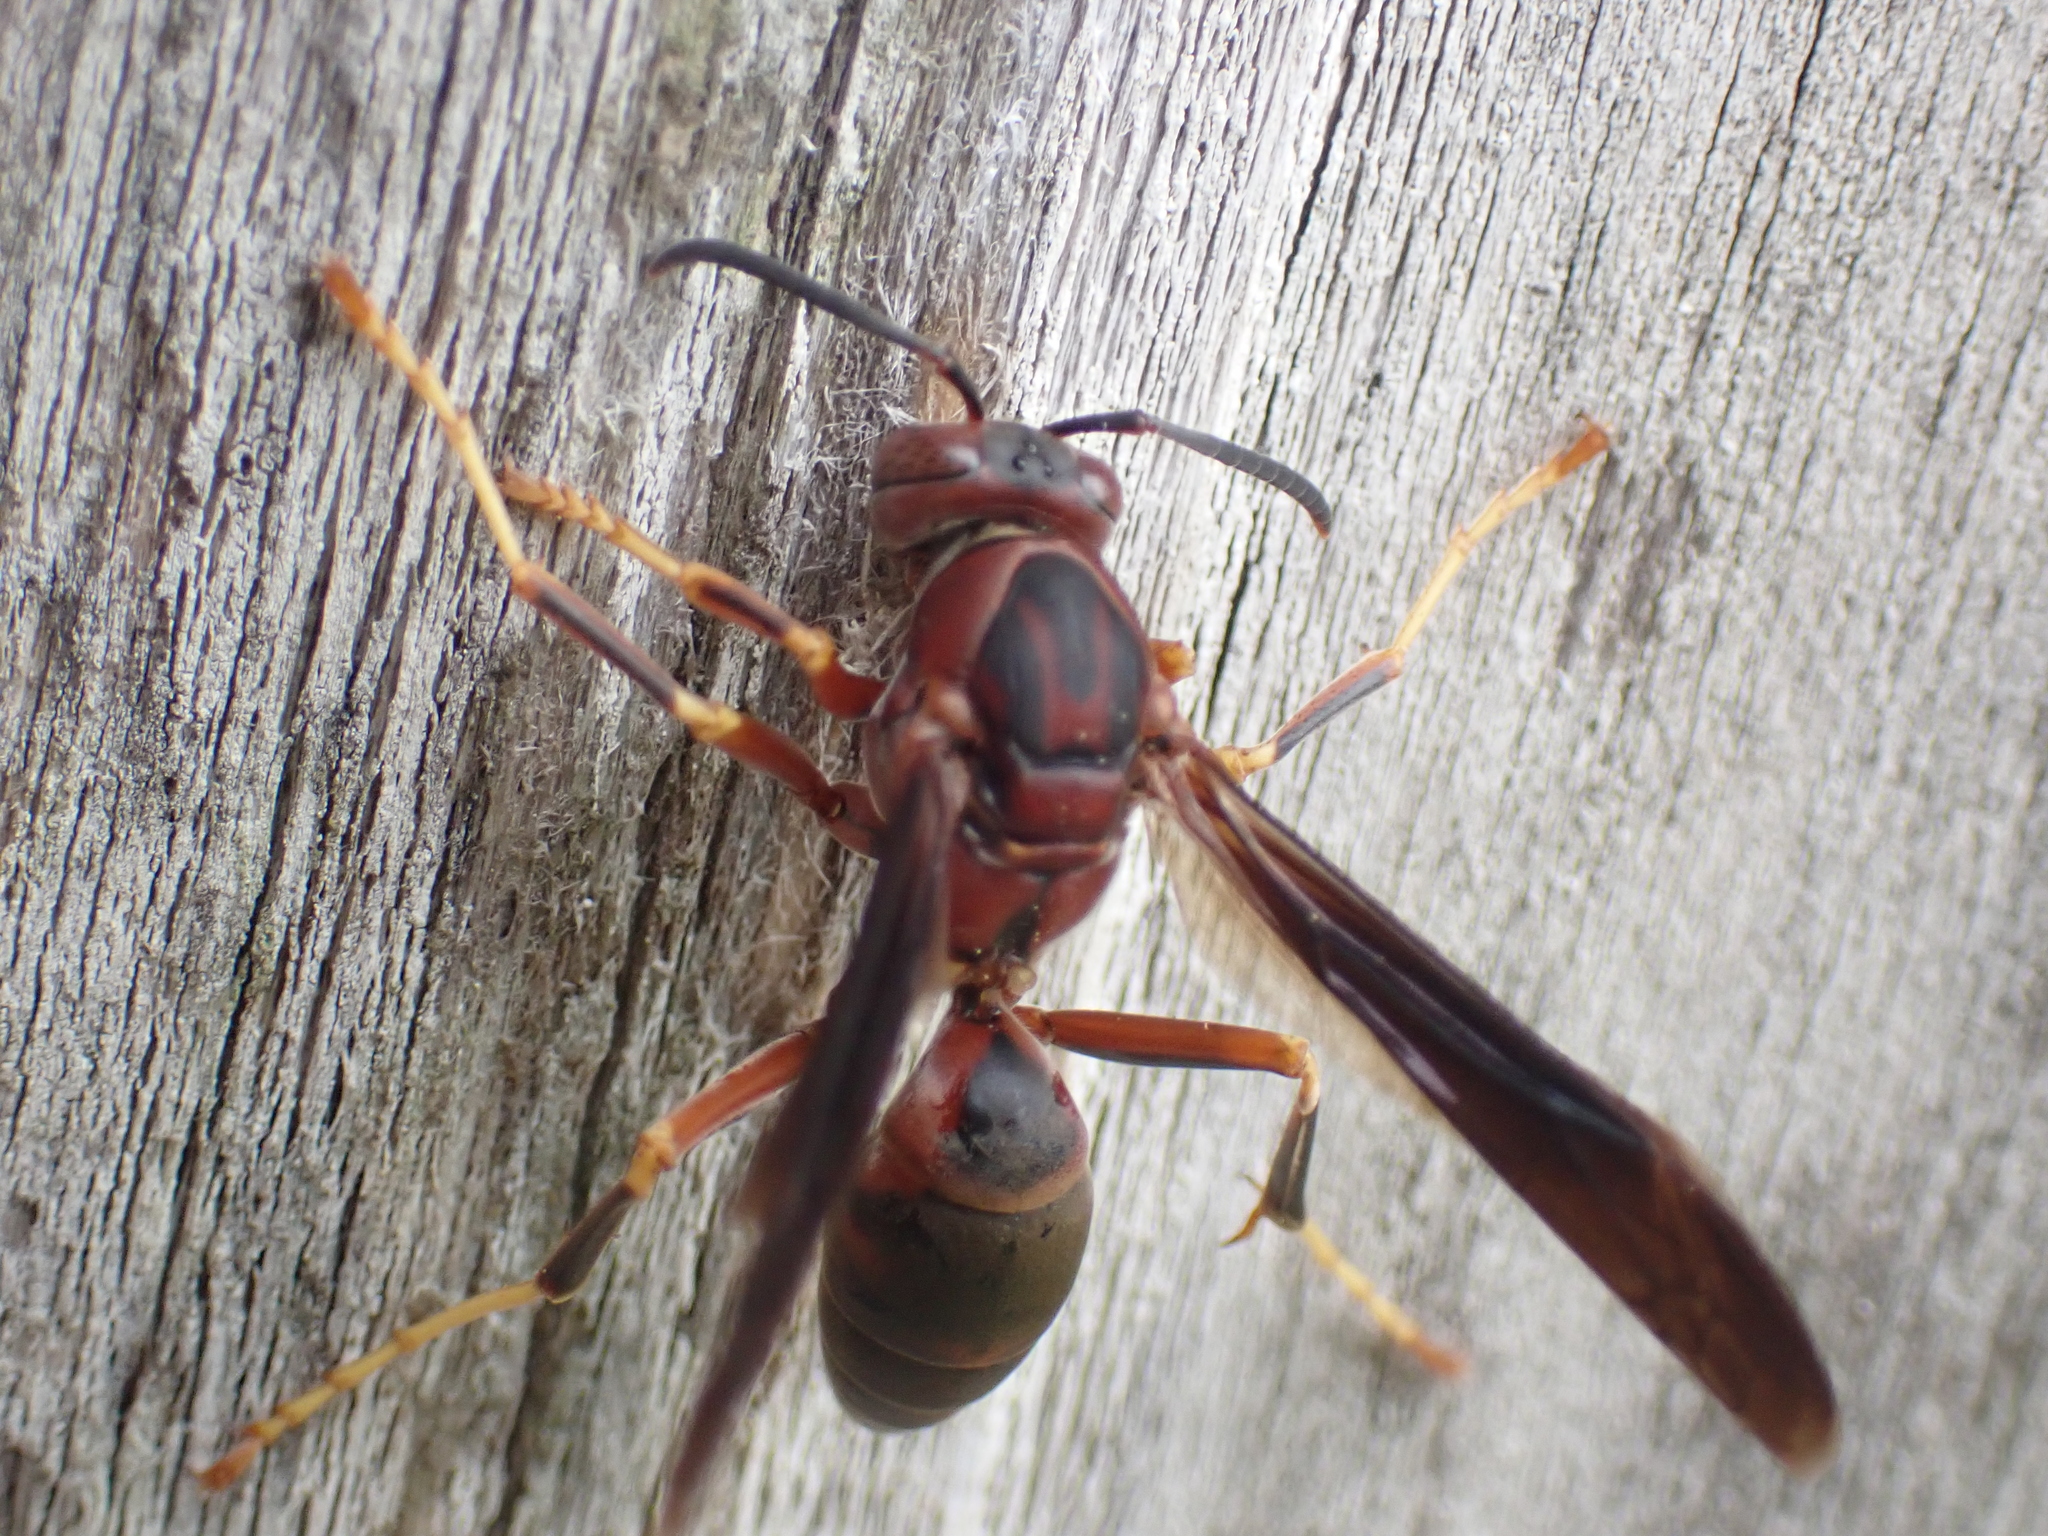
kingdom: Animalia
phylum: Arthropoda
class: Insecta
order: Hymenoptera
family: Eumenidae
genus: Polistes
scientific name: Polistes metricus
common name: Metric paper wasp
